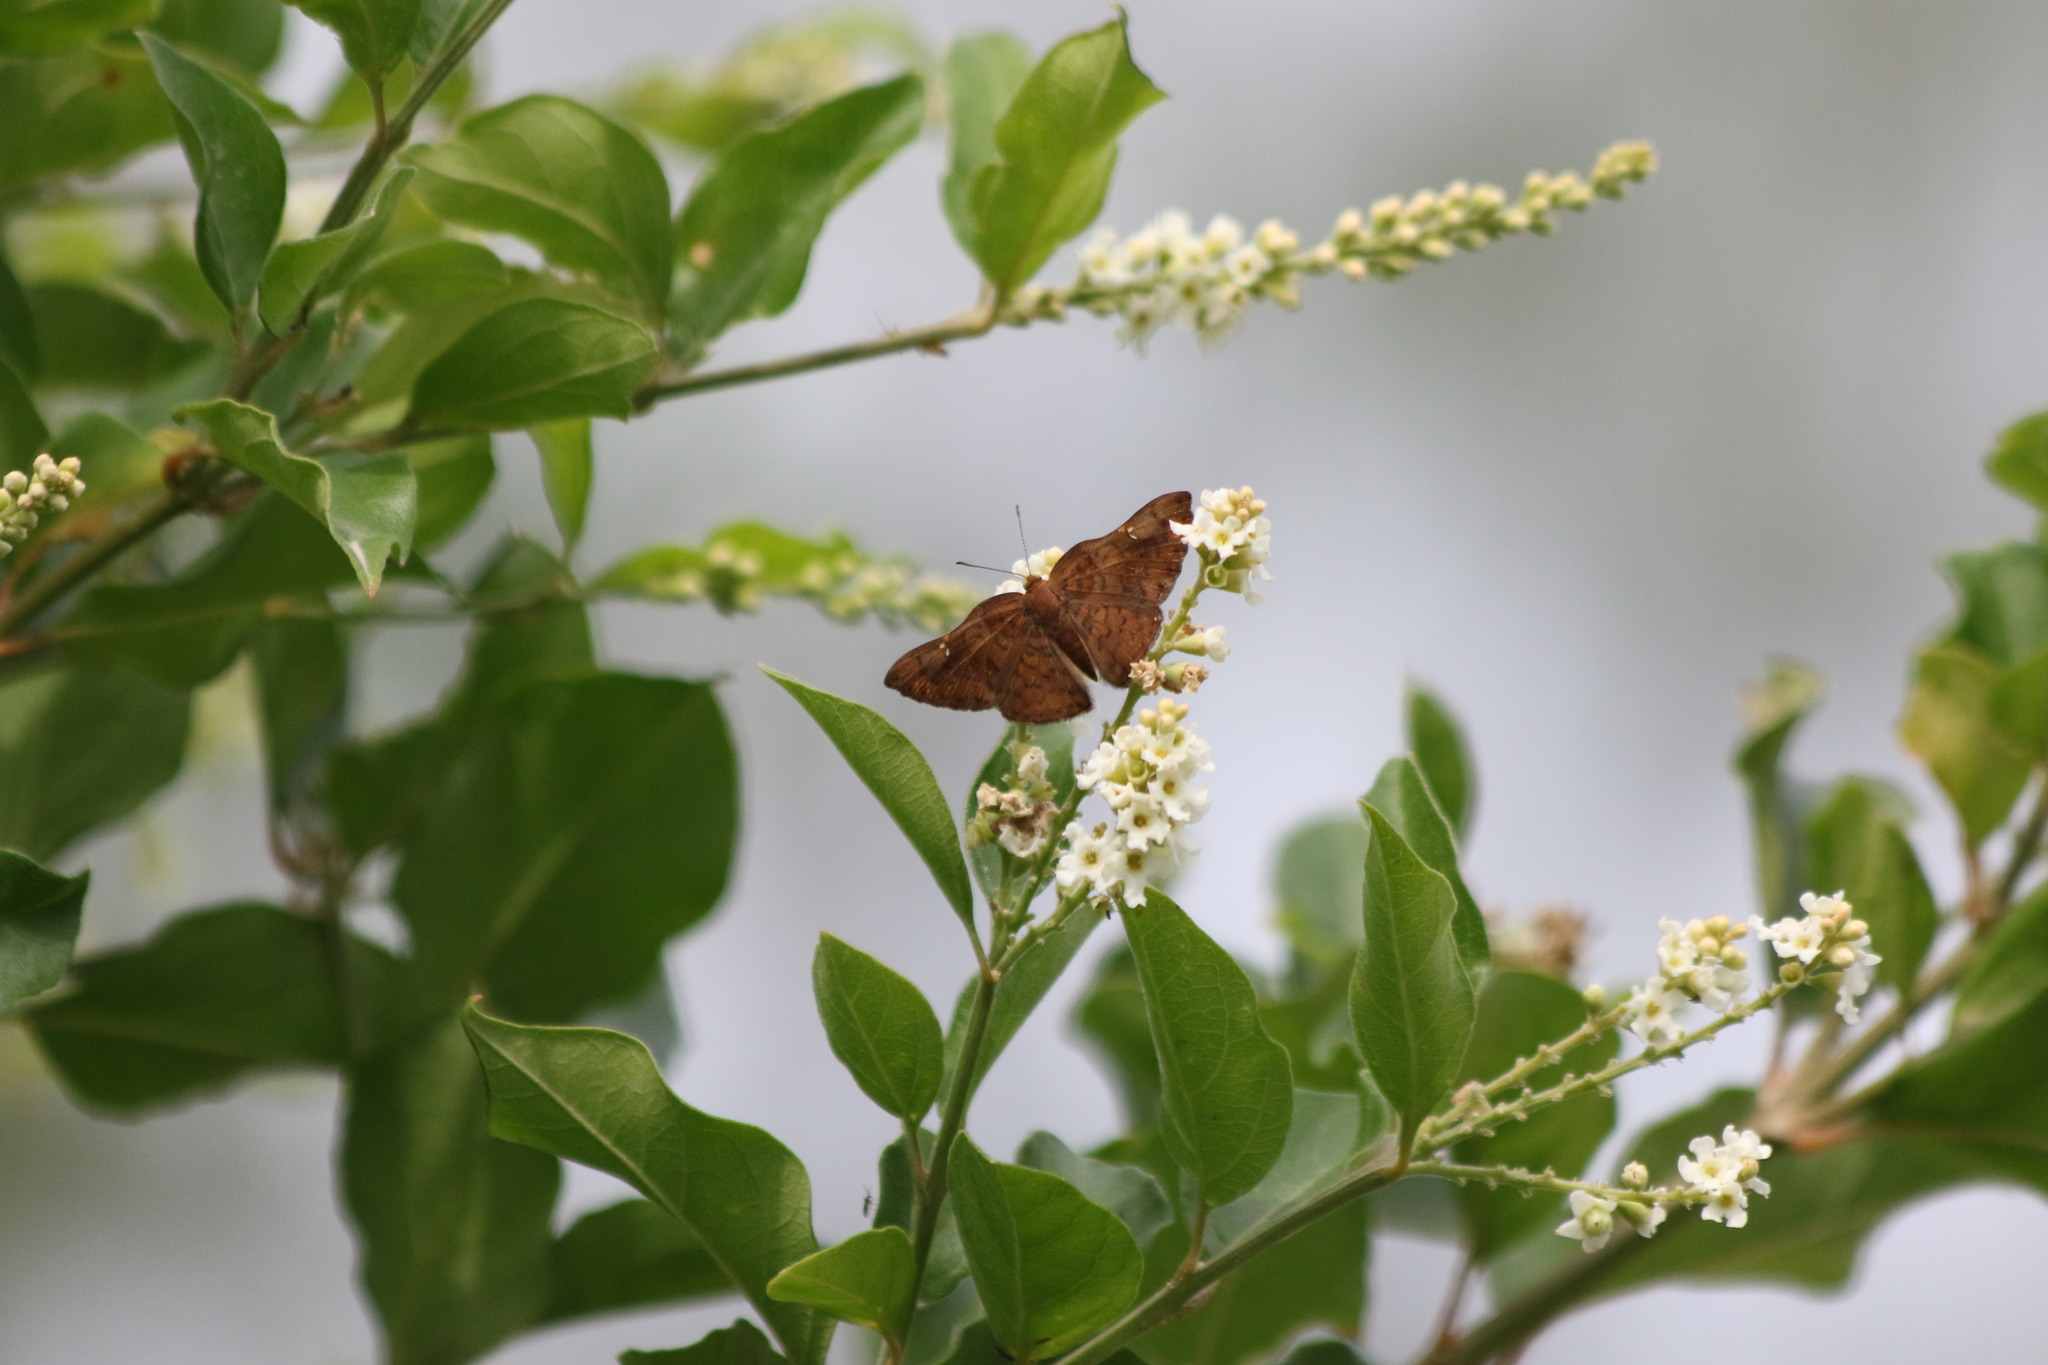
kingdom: Animalia
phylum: Arthropoda
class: Insecta
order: Lepidoptera
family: Riodinidae
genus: Curvie
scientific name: Curvie emesia
